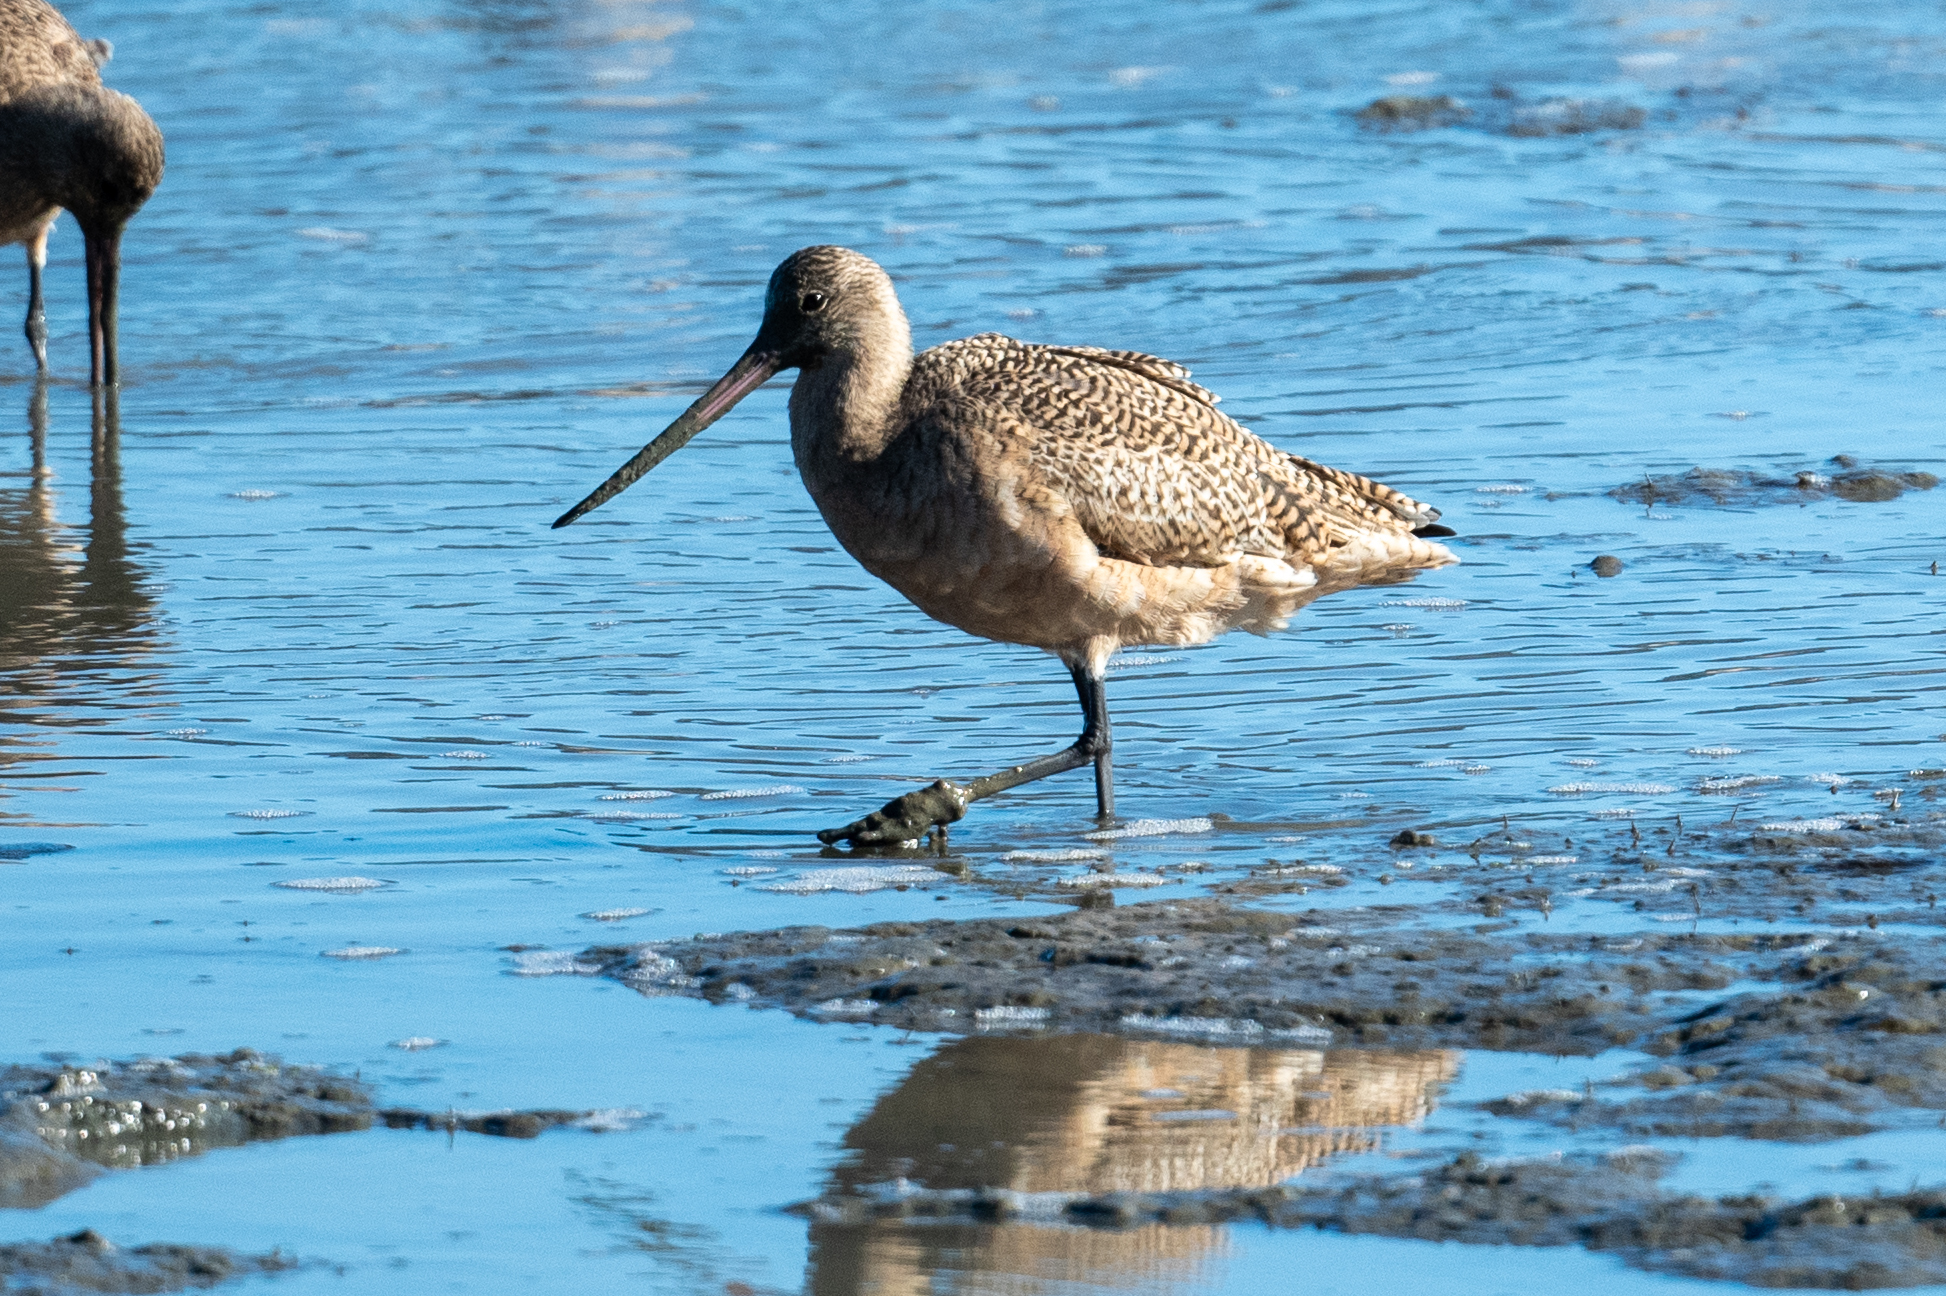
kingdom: Animalia
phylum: Chordata
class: Aves
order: Charadriiformes
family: Scolopacidae
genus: Limosa
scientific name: Limosa fedoa
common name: Marbled godwit
